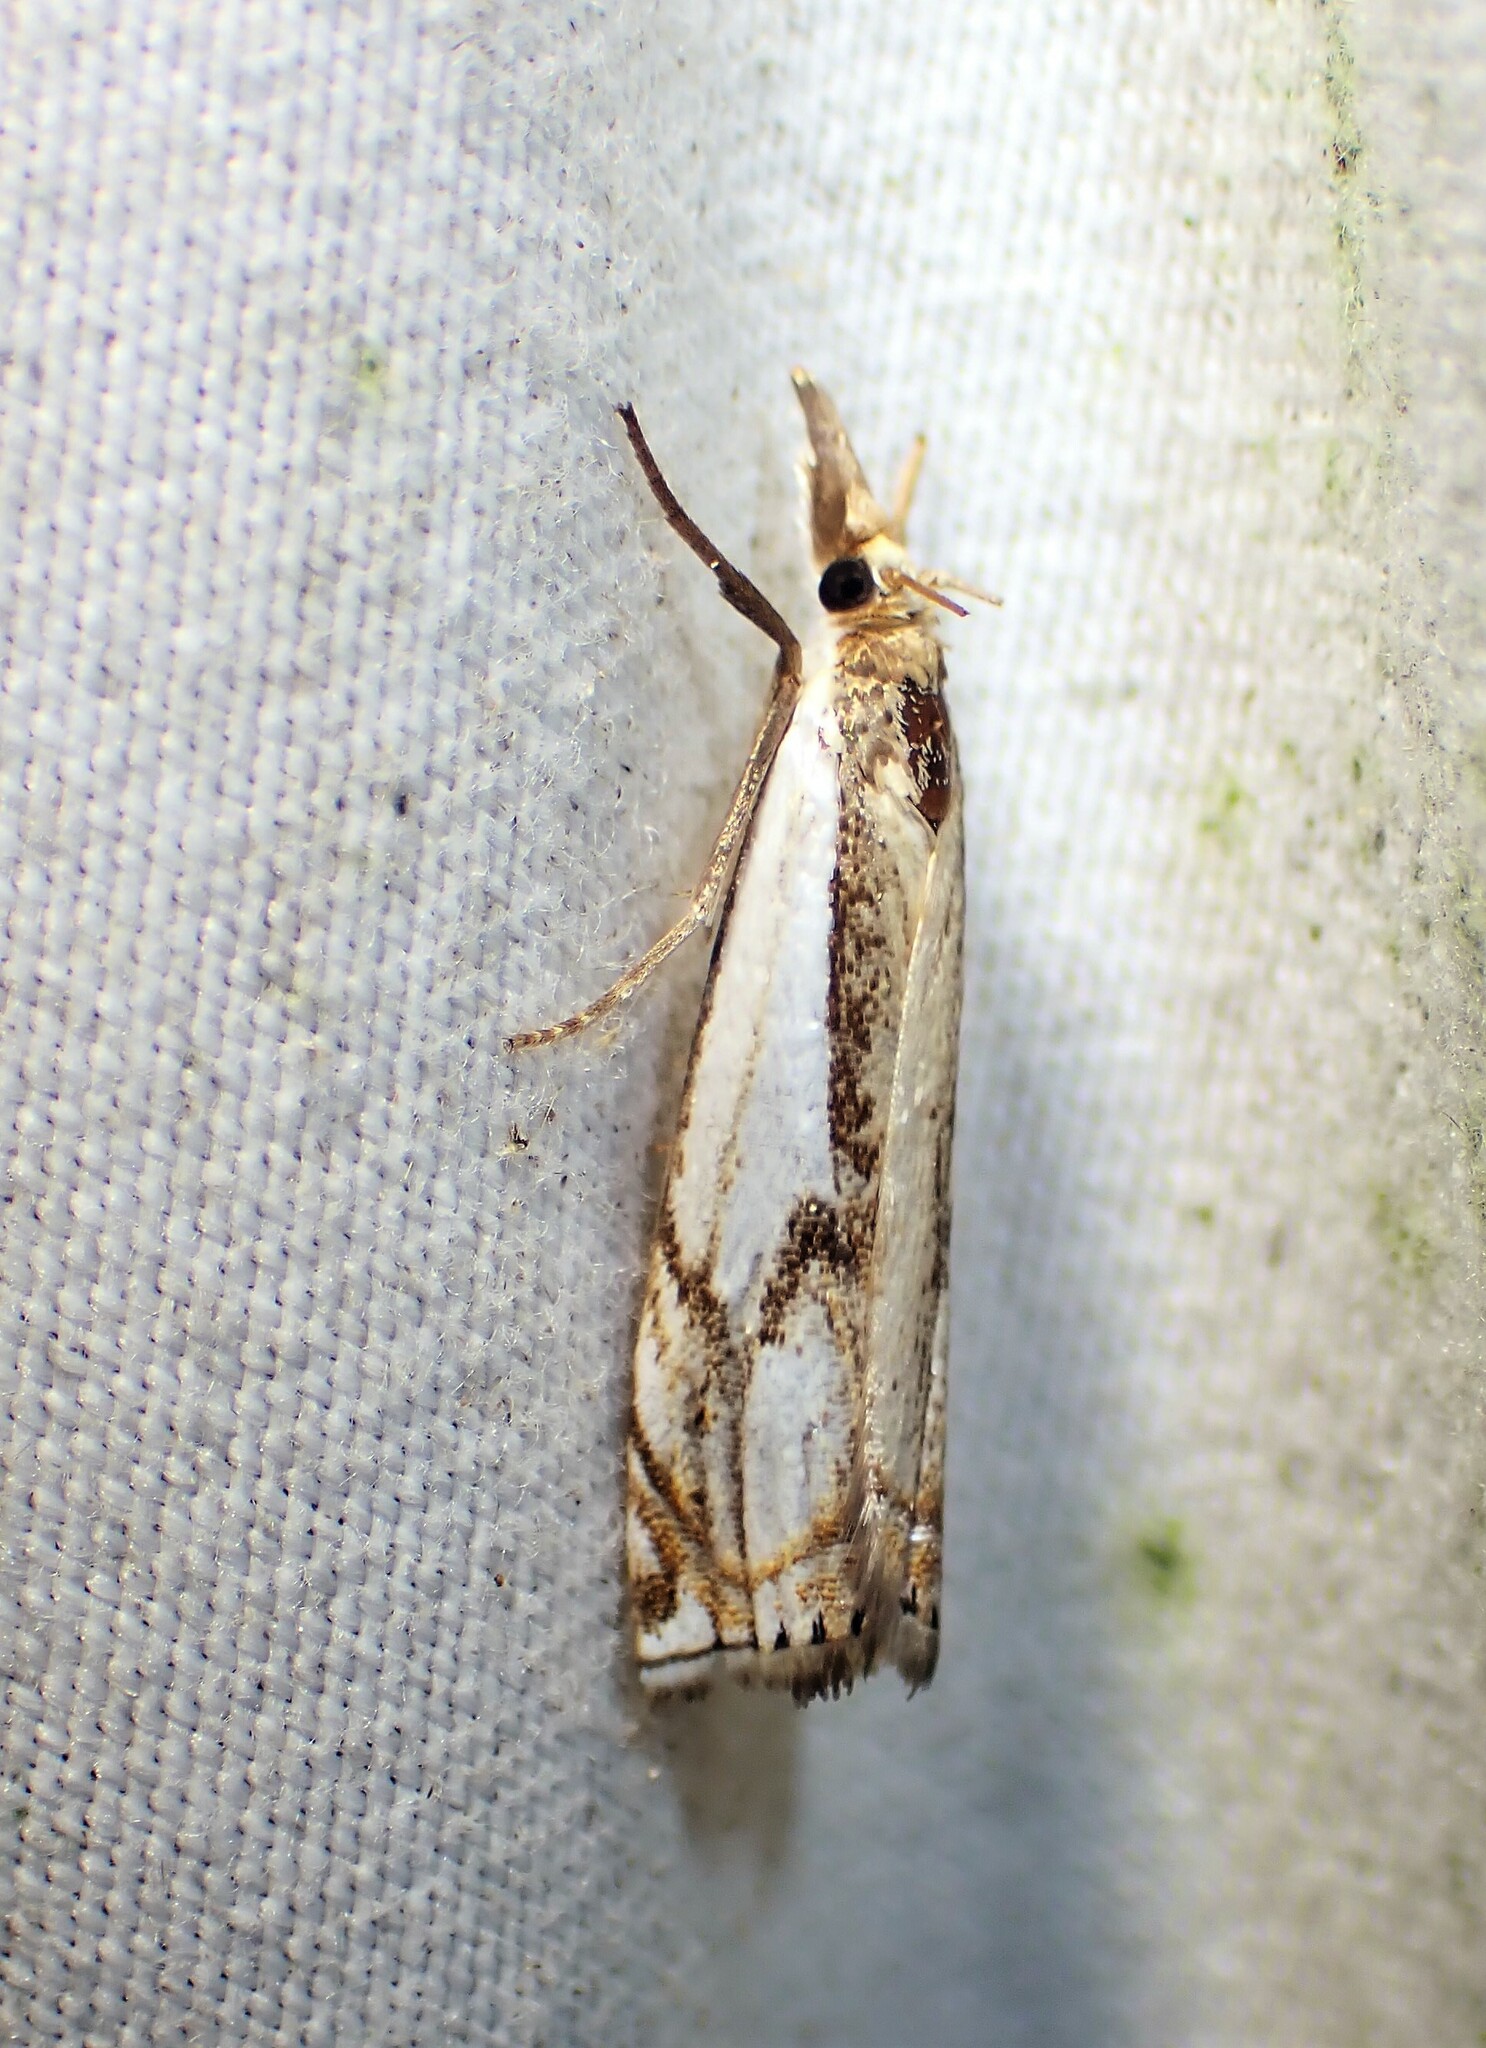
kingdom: Animalia
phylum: Arthropoda
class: Insecta
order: Lepidoptera
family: Crambidae
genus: Crambus
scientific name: Crambus agitatellus
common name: Double-banded grass-veneer
